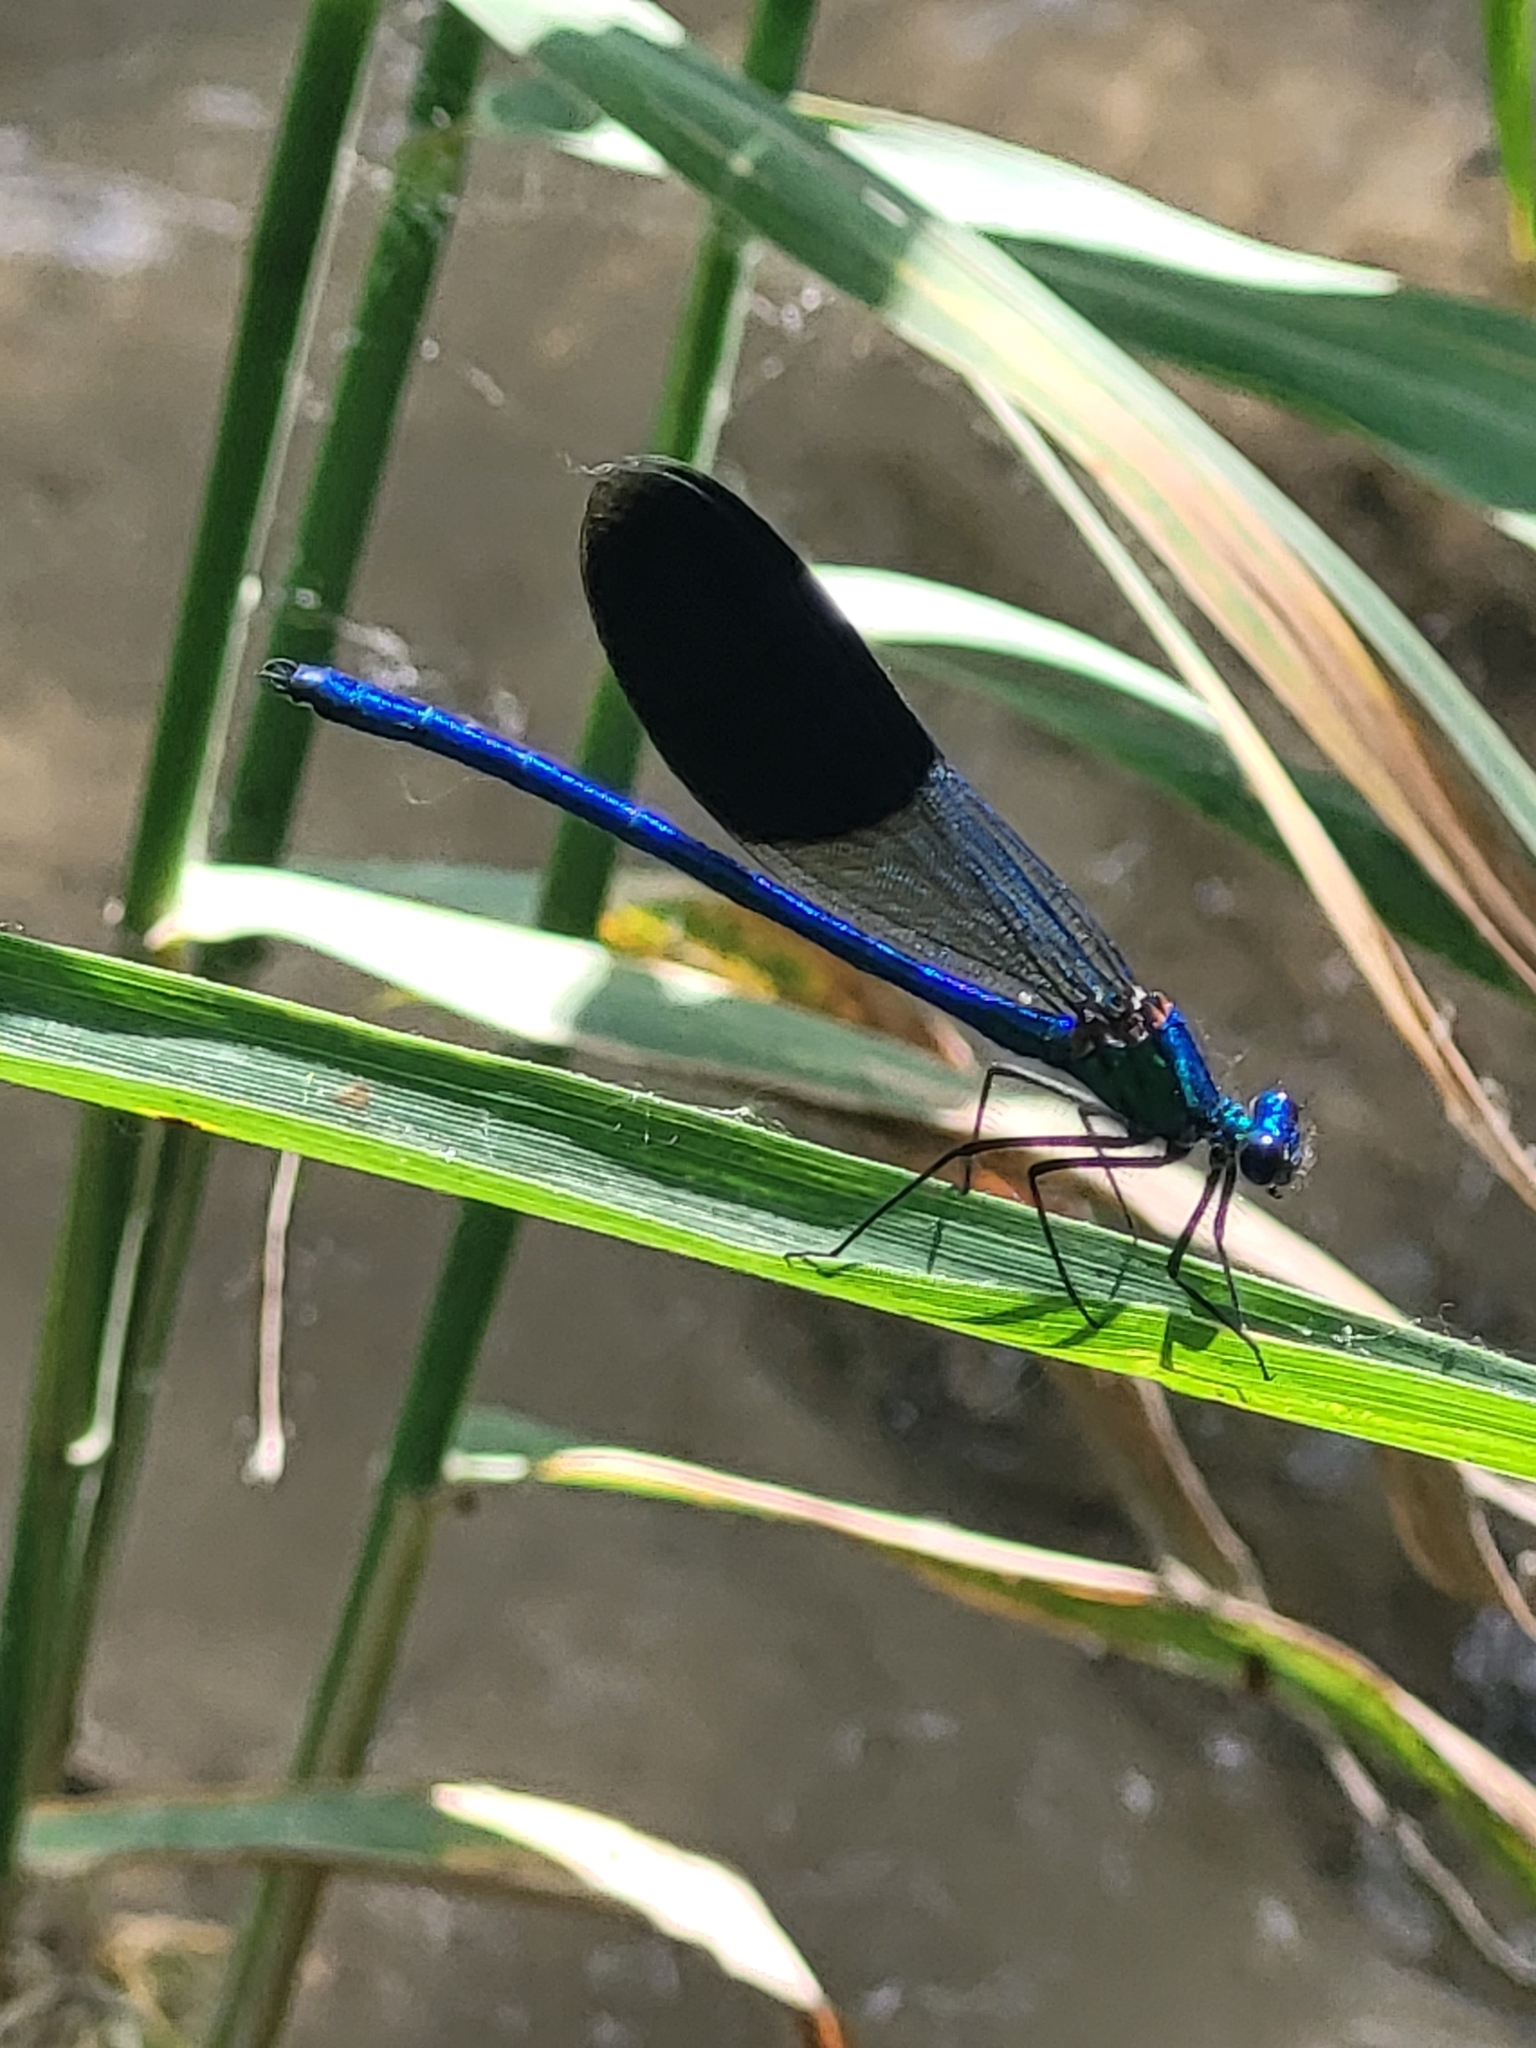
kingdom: Animalia
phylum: Arthropoda
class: Insecta
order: Odonata
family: Calopterygidae
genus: Calopteryx
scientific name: Calopteryx splendens
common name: Banded demoiselle
